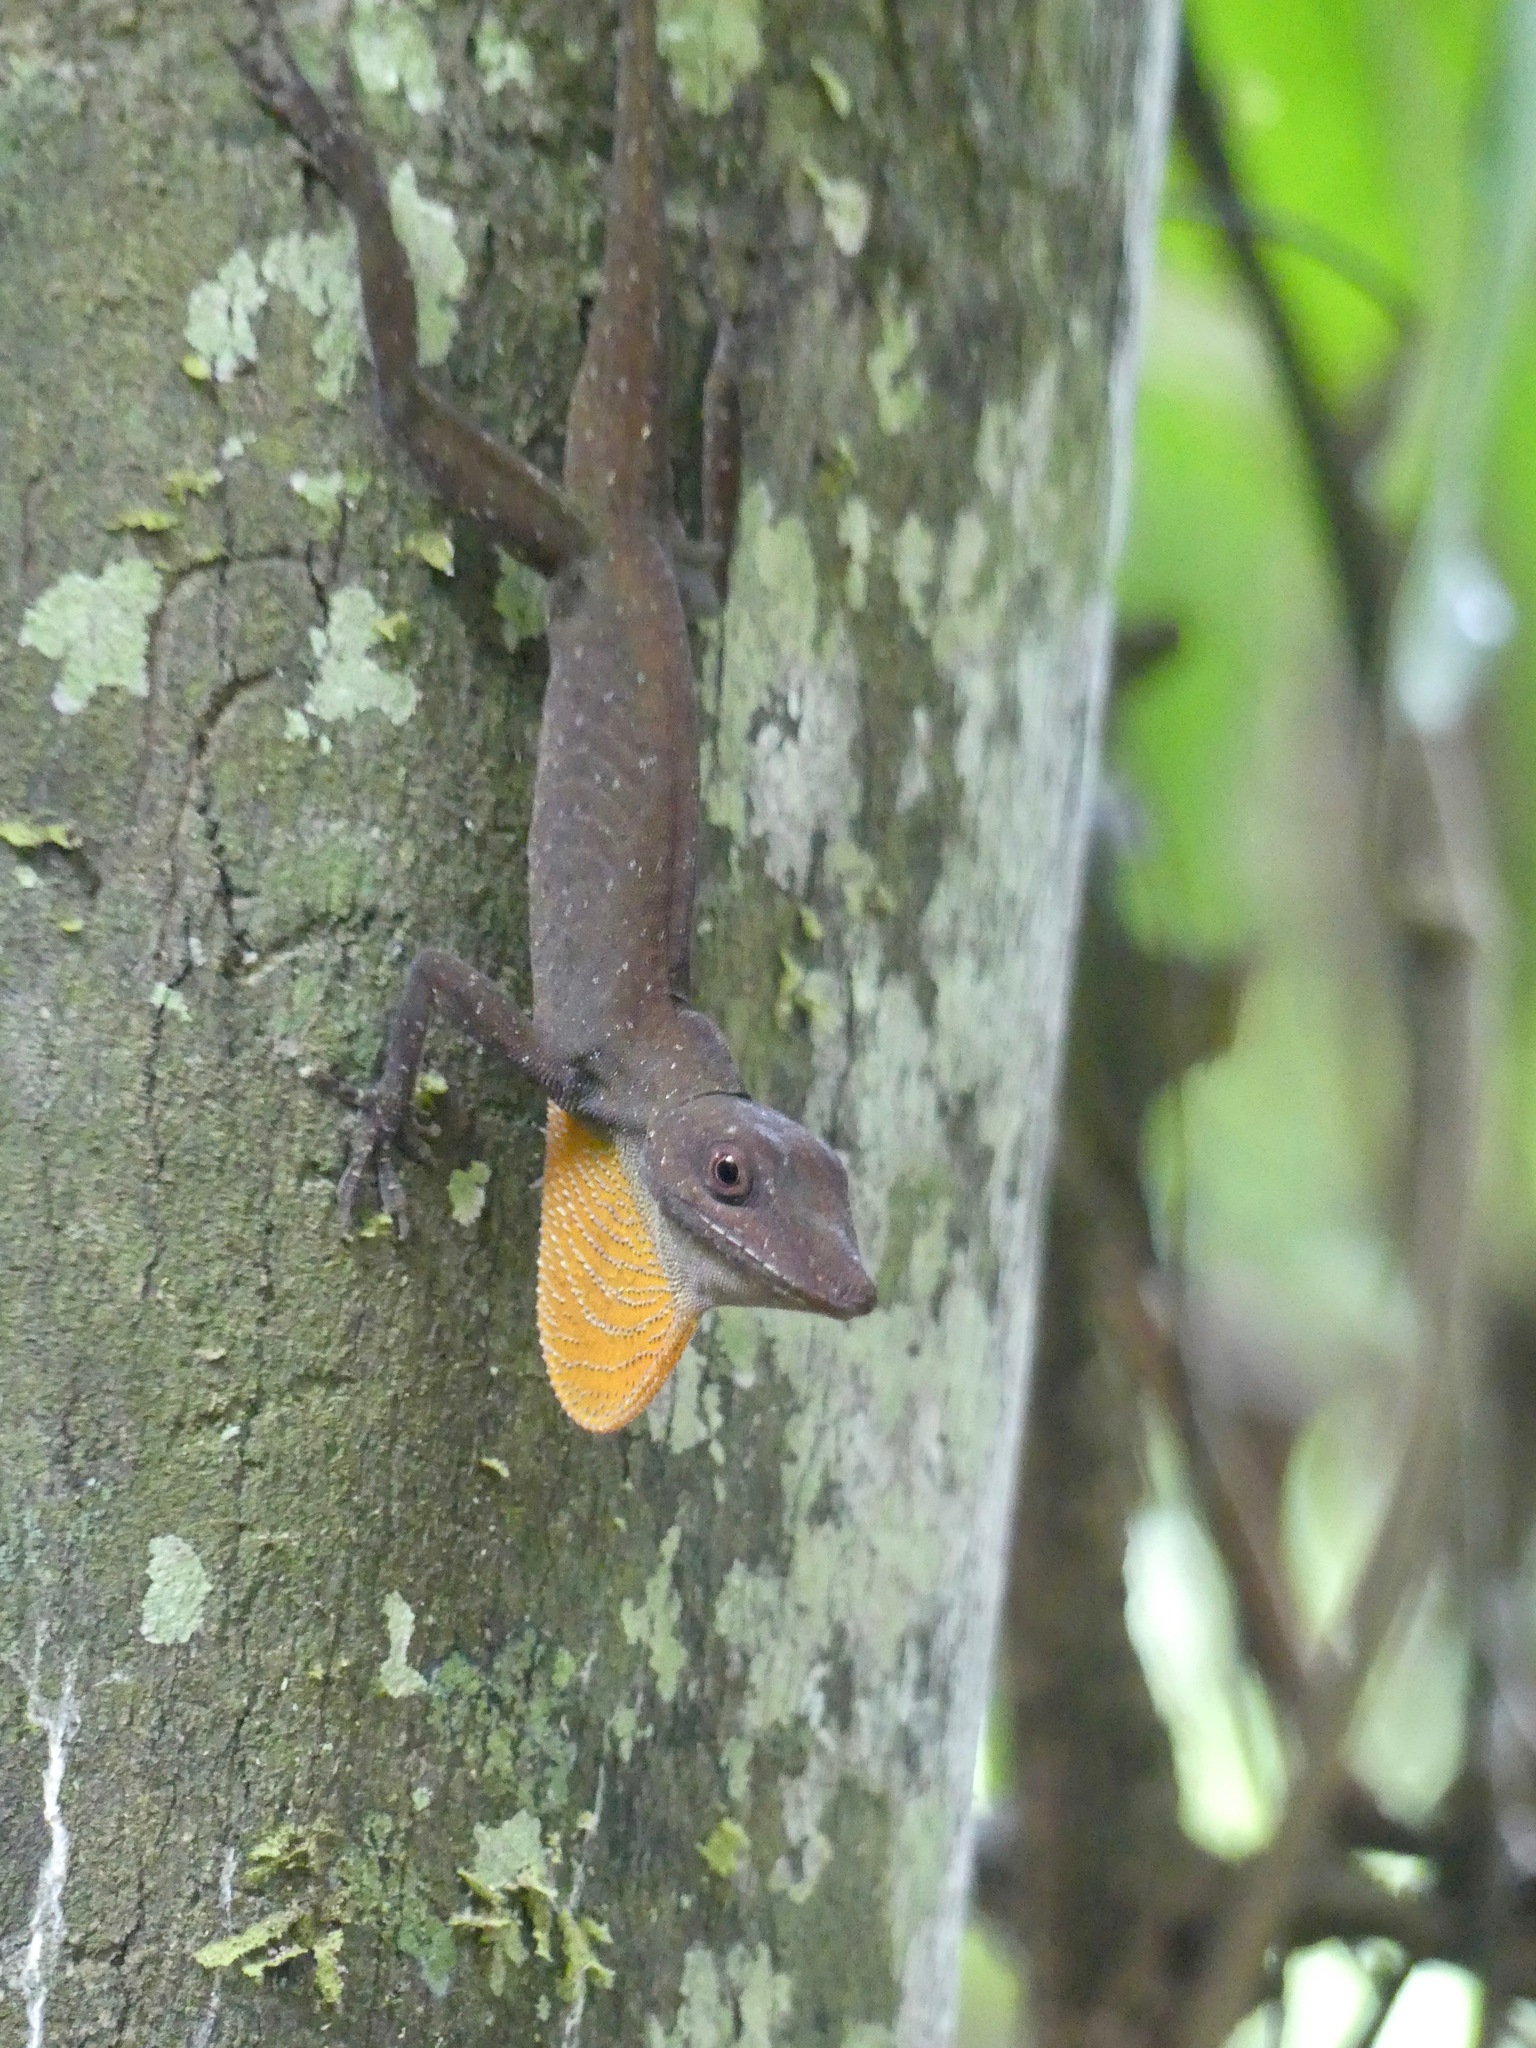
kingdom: Animalia
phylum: Chordata
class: Squamata
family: Dactyloidae
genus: Anolis
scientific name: Anolis punctatus
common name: Amazon green anole
